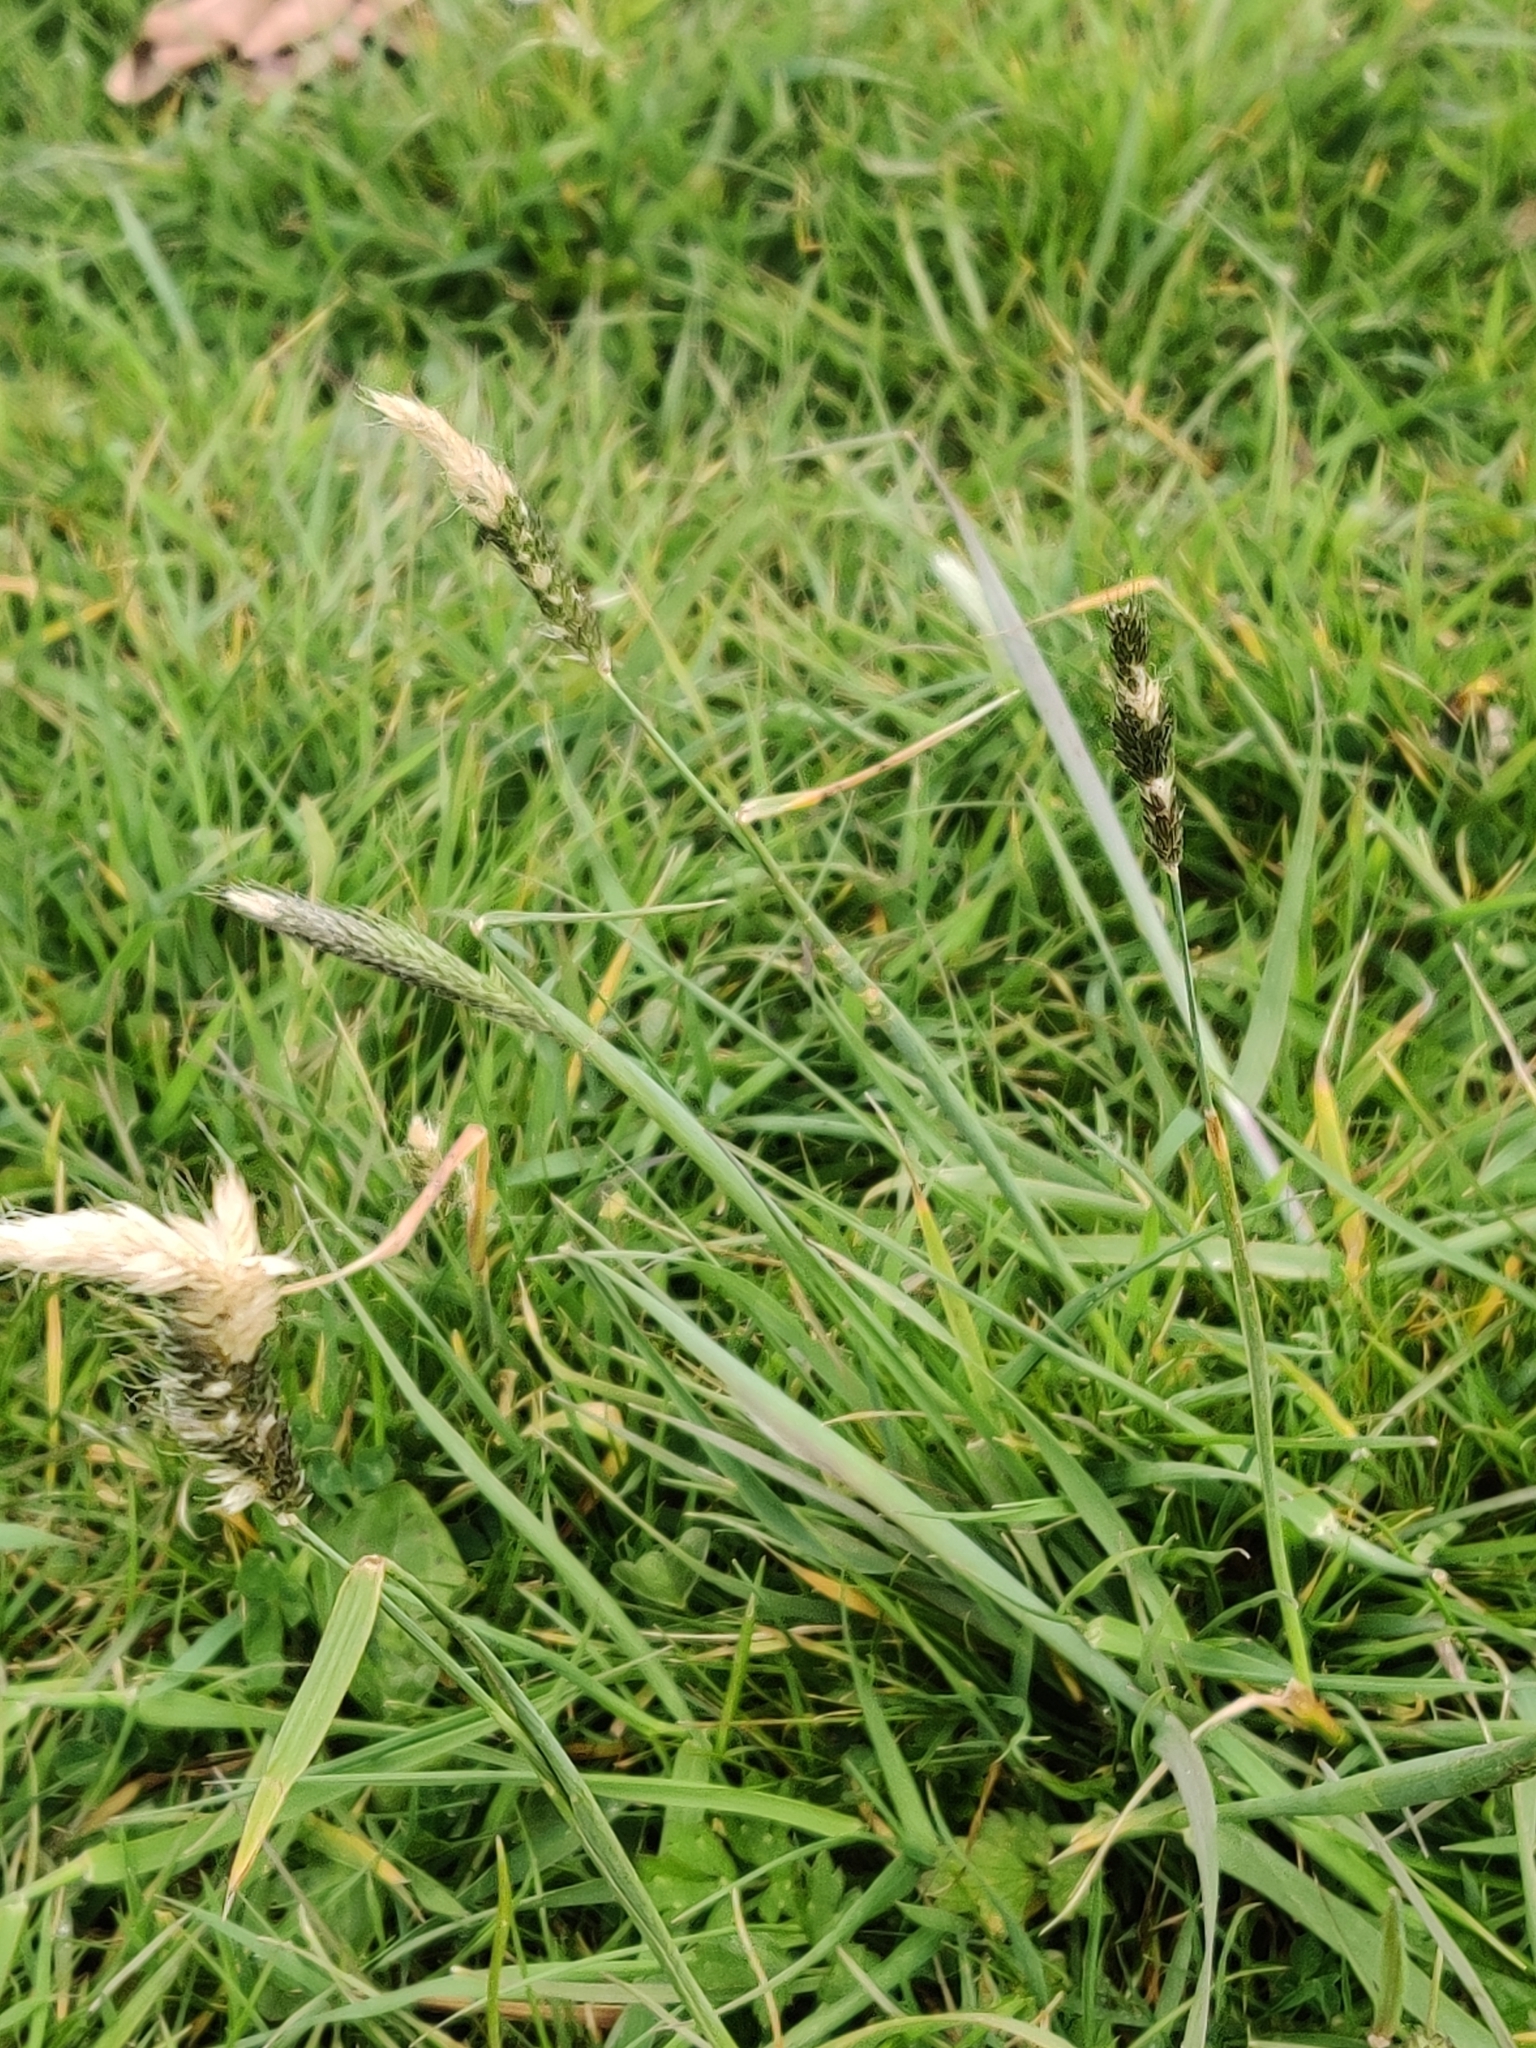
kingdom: Plantae
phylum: Tracheophyta
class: Liliopsida
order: Poales
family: Poaceae
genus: Alopecurus
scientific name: Alopecurus pratensis
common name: Meadow foxtail
